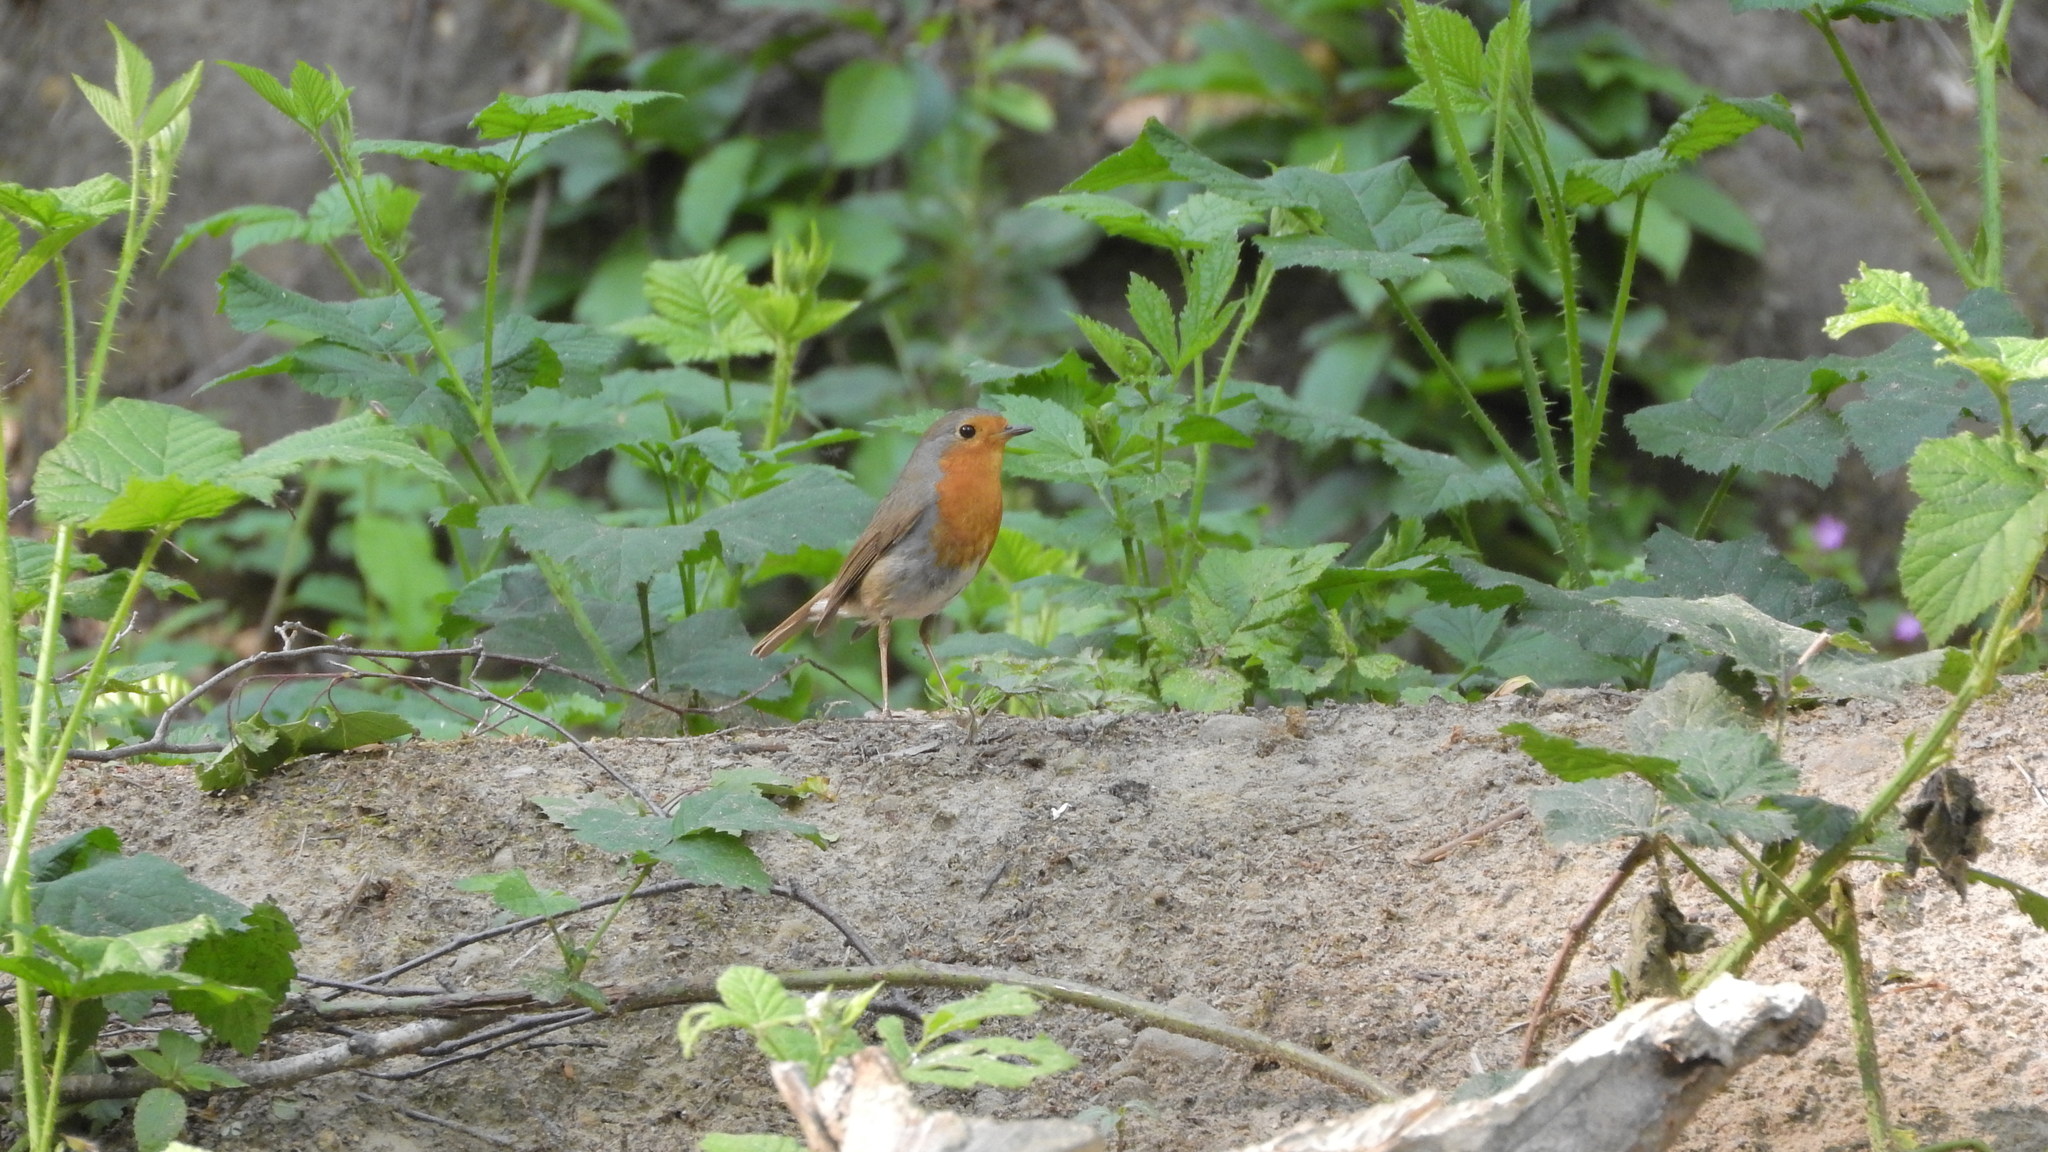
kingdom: Animalia
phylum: Chordata
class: Aves
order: Passeriformes
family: Muscicapidae
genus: Erithacus
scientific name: Erithacus rubecula
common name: European robin
